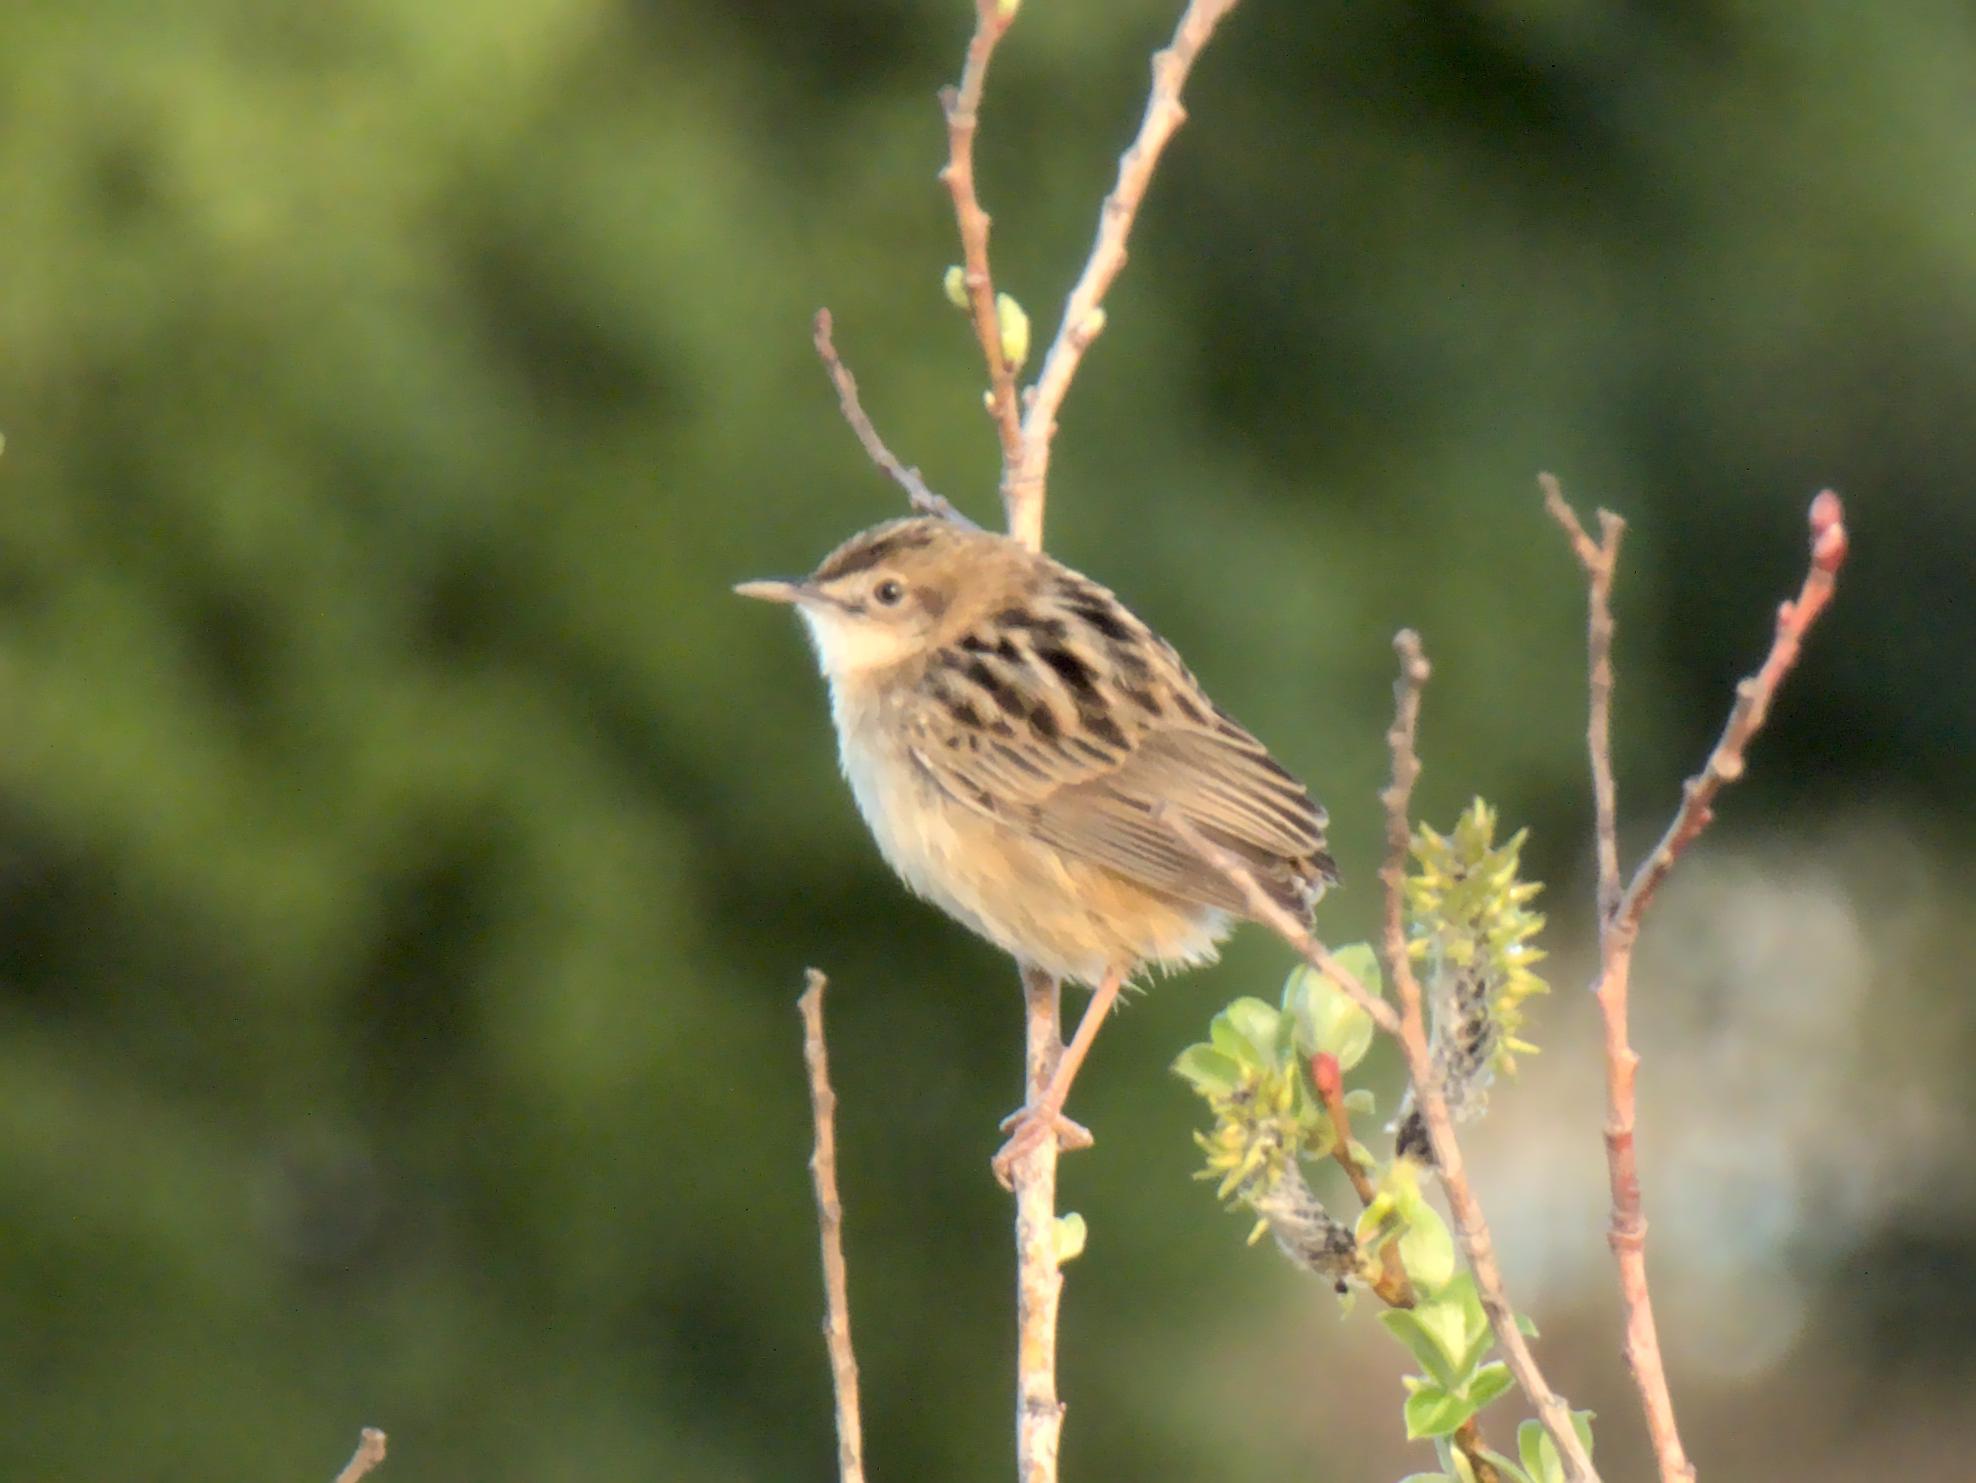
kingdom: Animalia
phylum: Chordata
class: Aves
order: Passeriformes
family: Cisticolidae
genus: Cisticola
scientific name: Cisticola juncidis
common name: Zitting cisticola
